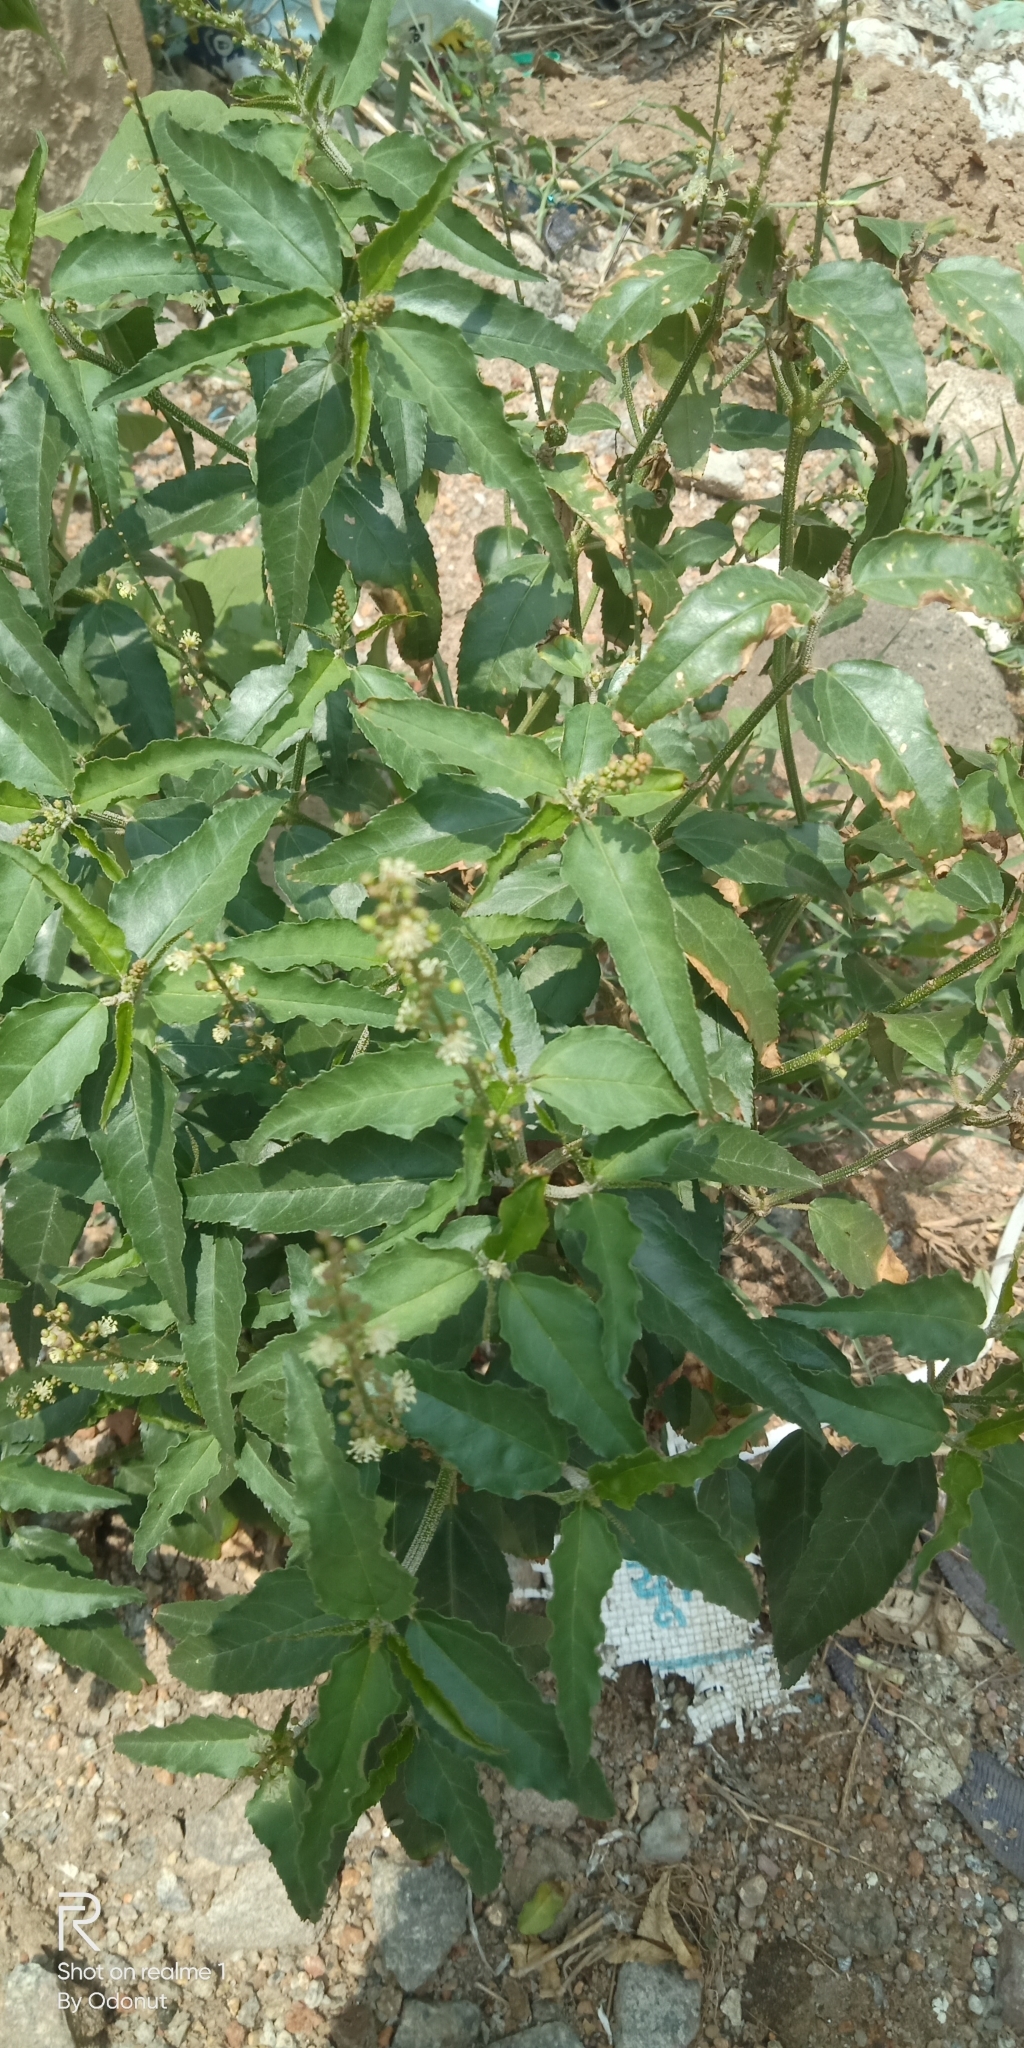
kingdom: Plantae
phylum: Tracheophyta
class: Magnoliopsida
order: Malpighiales
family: Euphorbiaceae
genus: Croton
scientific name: Croton bonplandianus
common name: Bonpland's croton
